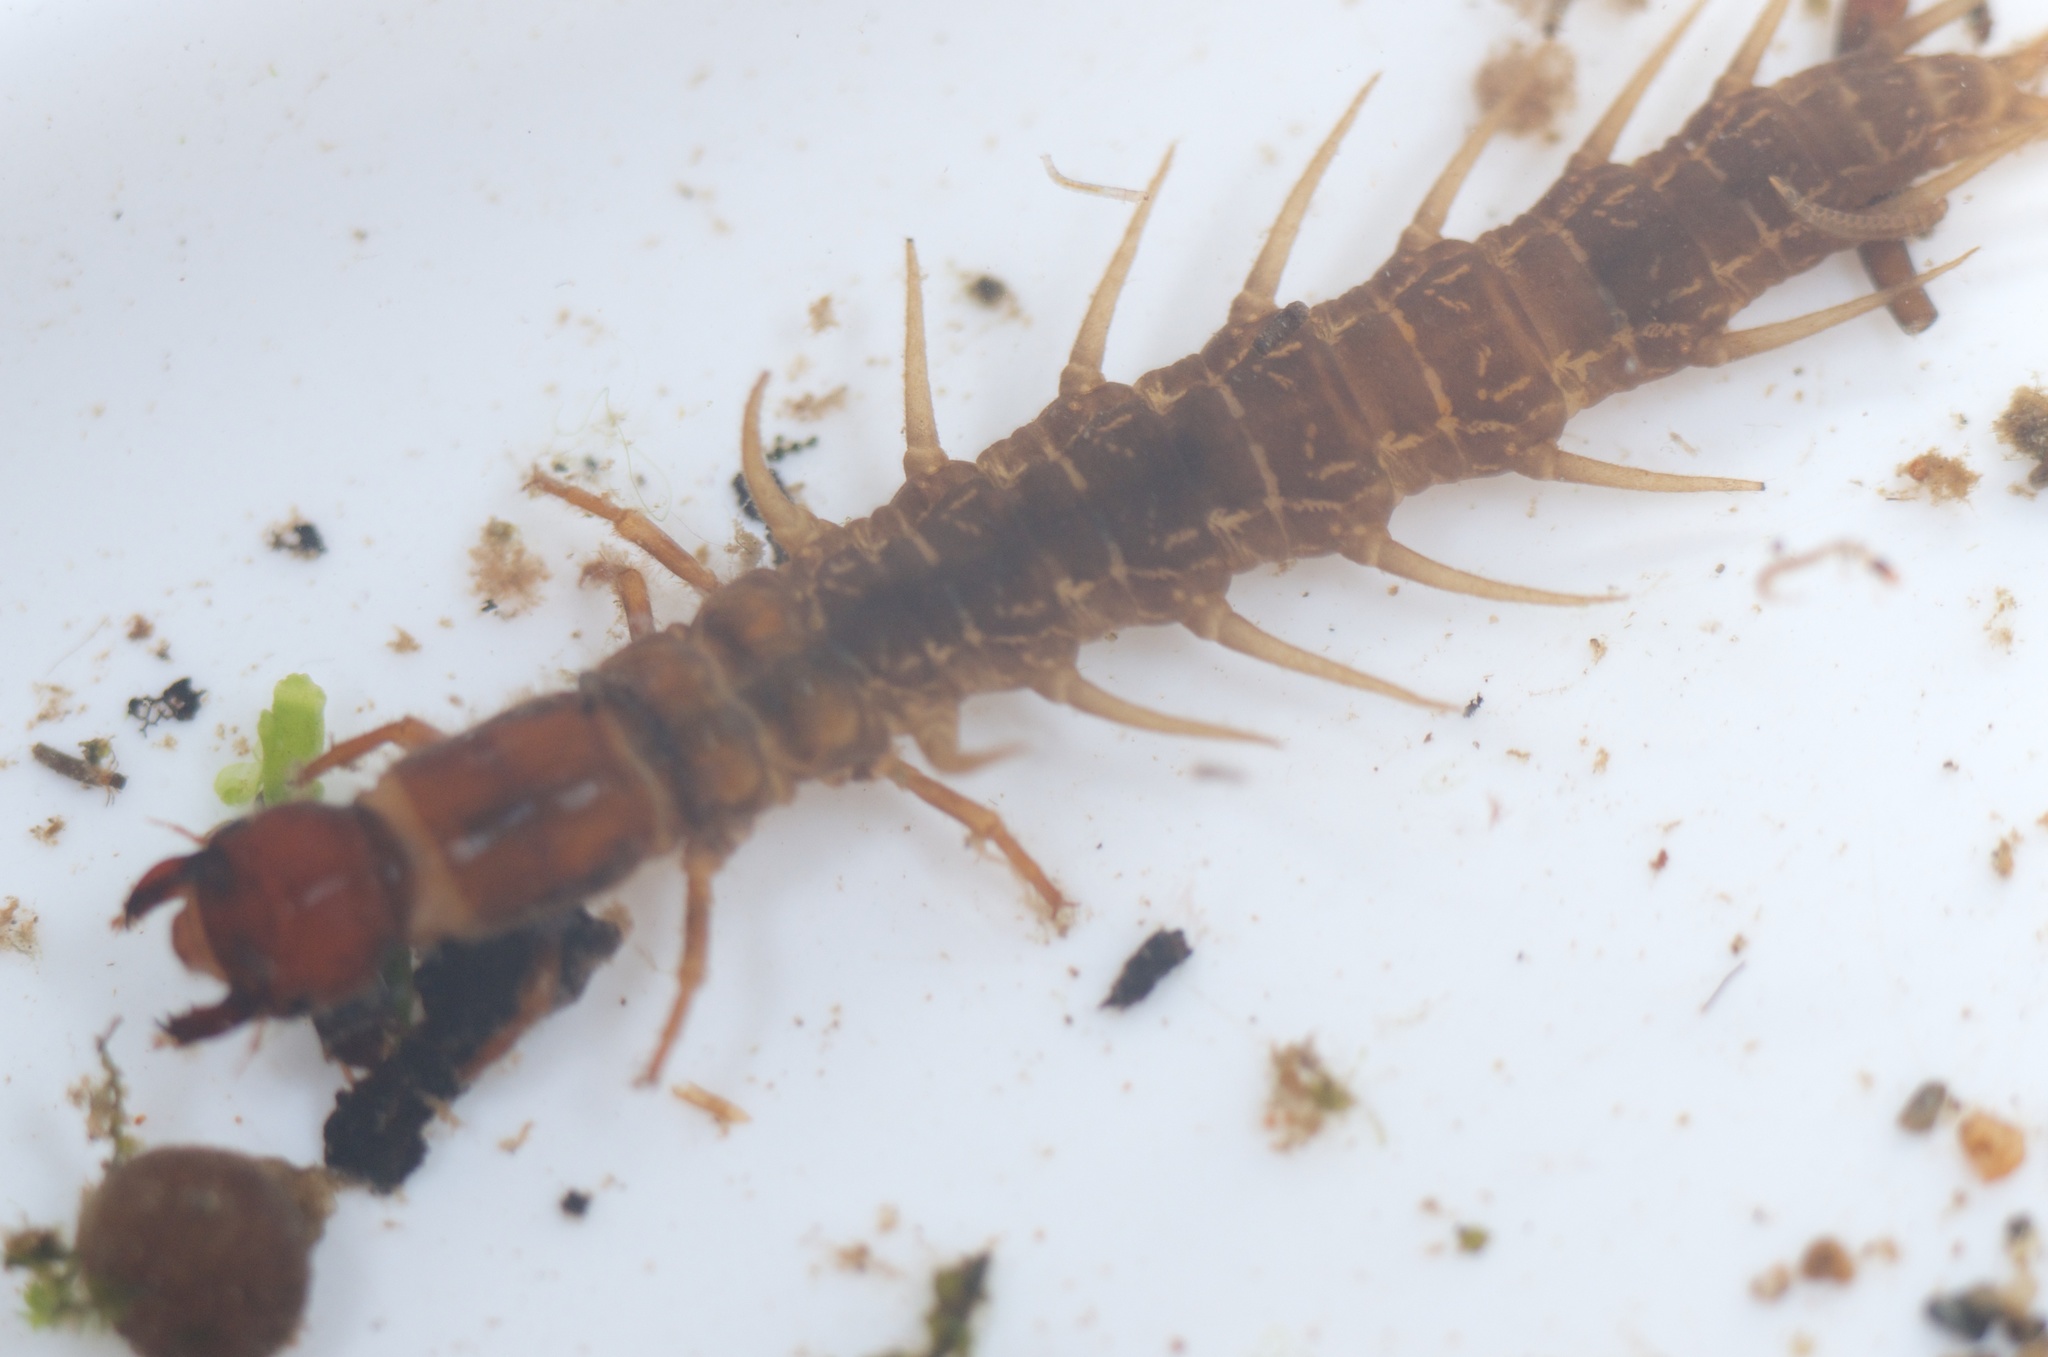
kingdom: Animalia
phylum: Arthropoda
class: Insecta
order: Megaloptera
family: Corydalidae
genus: Archichauliodes
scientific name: Archichauliodes diversus
